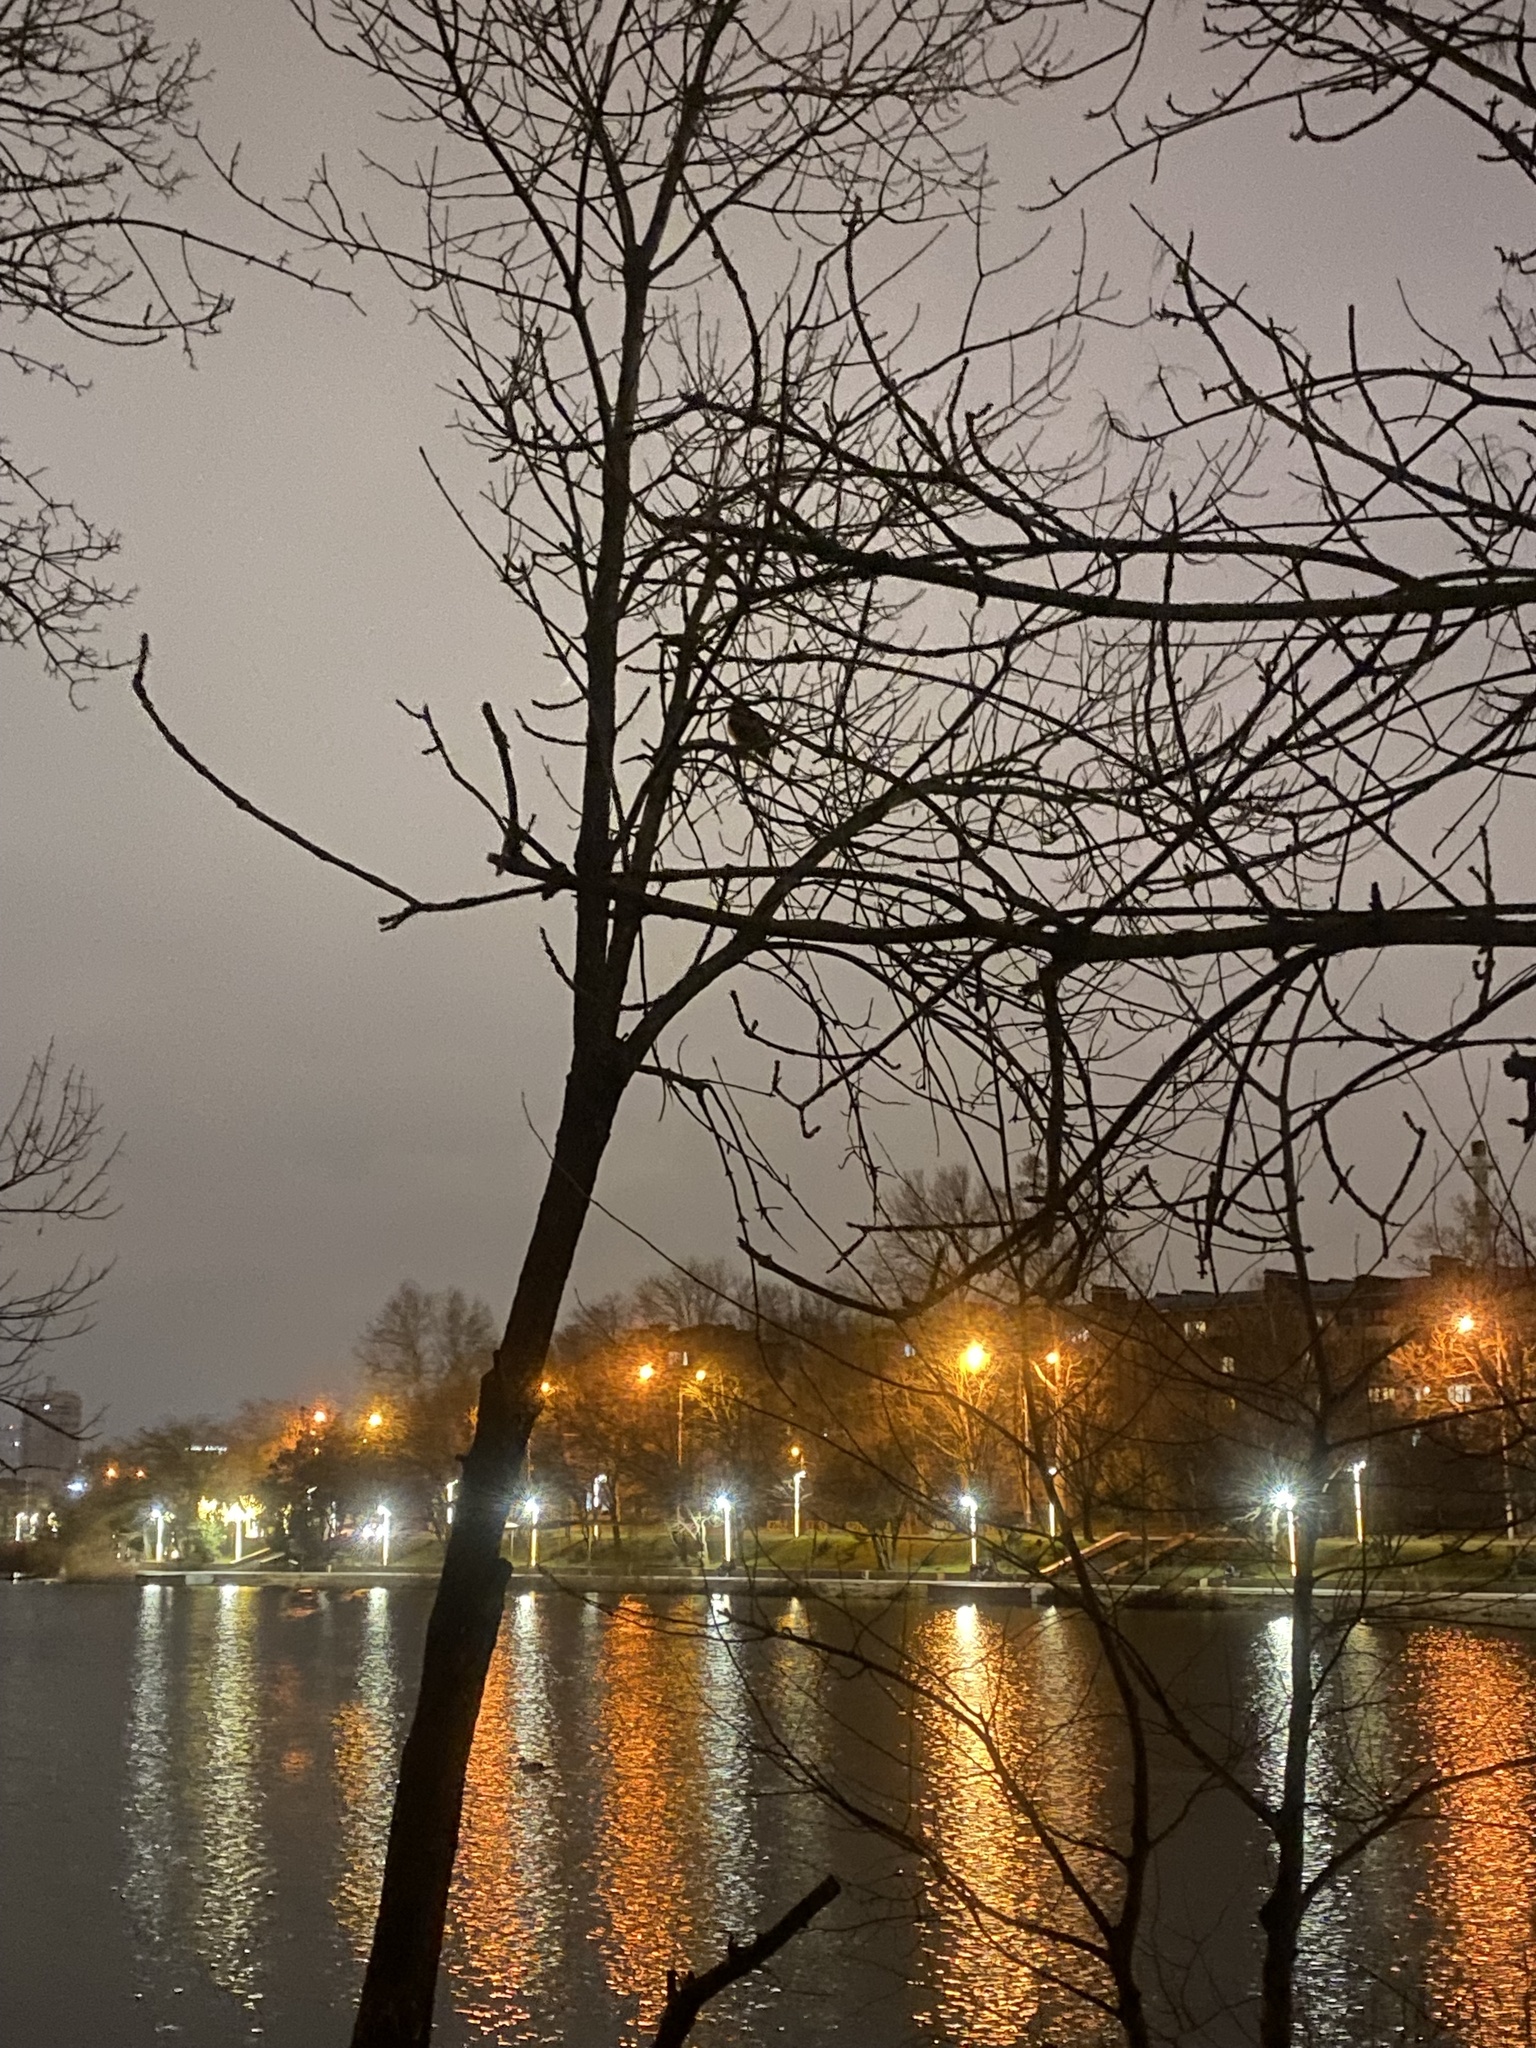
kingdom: Animalia
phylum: Chordata
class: Aves
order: Strigiformes
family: Strigidae
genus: Asio
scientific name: Asio otus
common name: Long-eared owl
